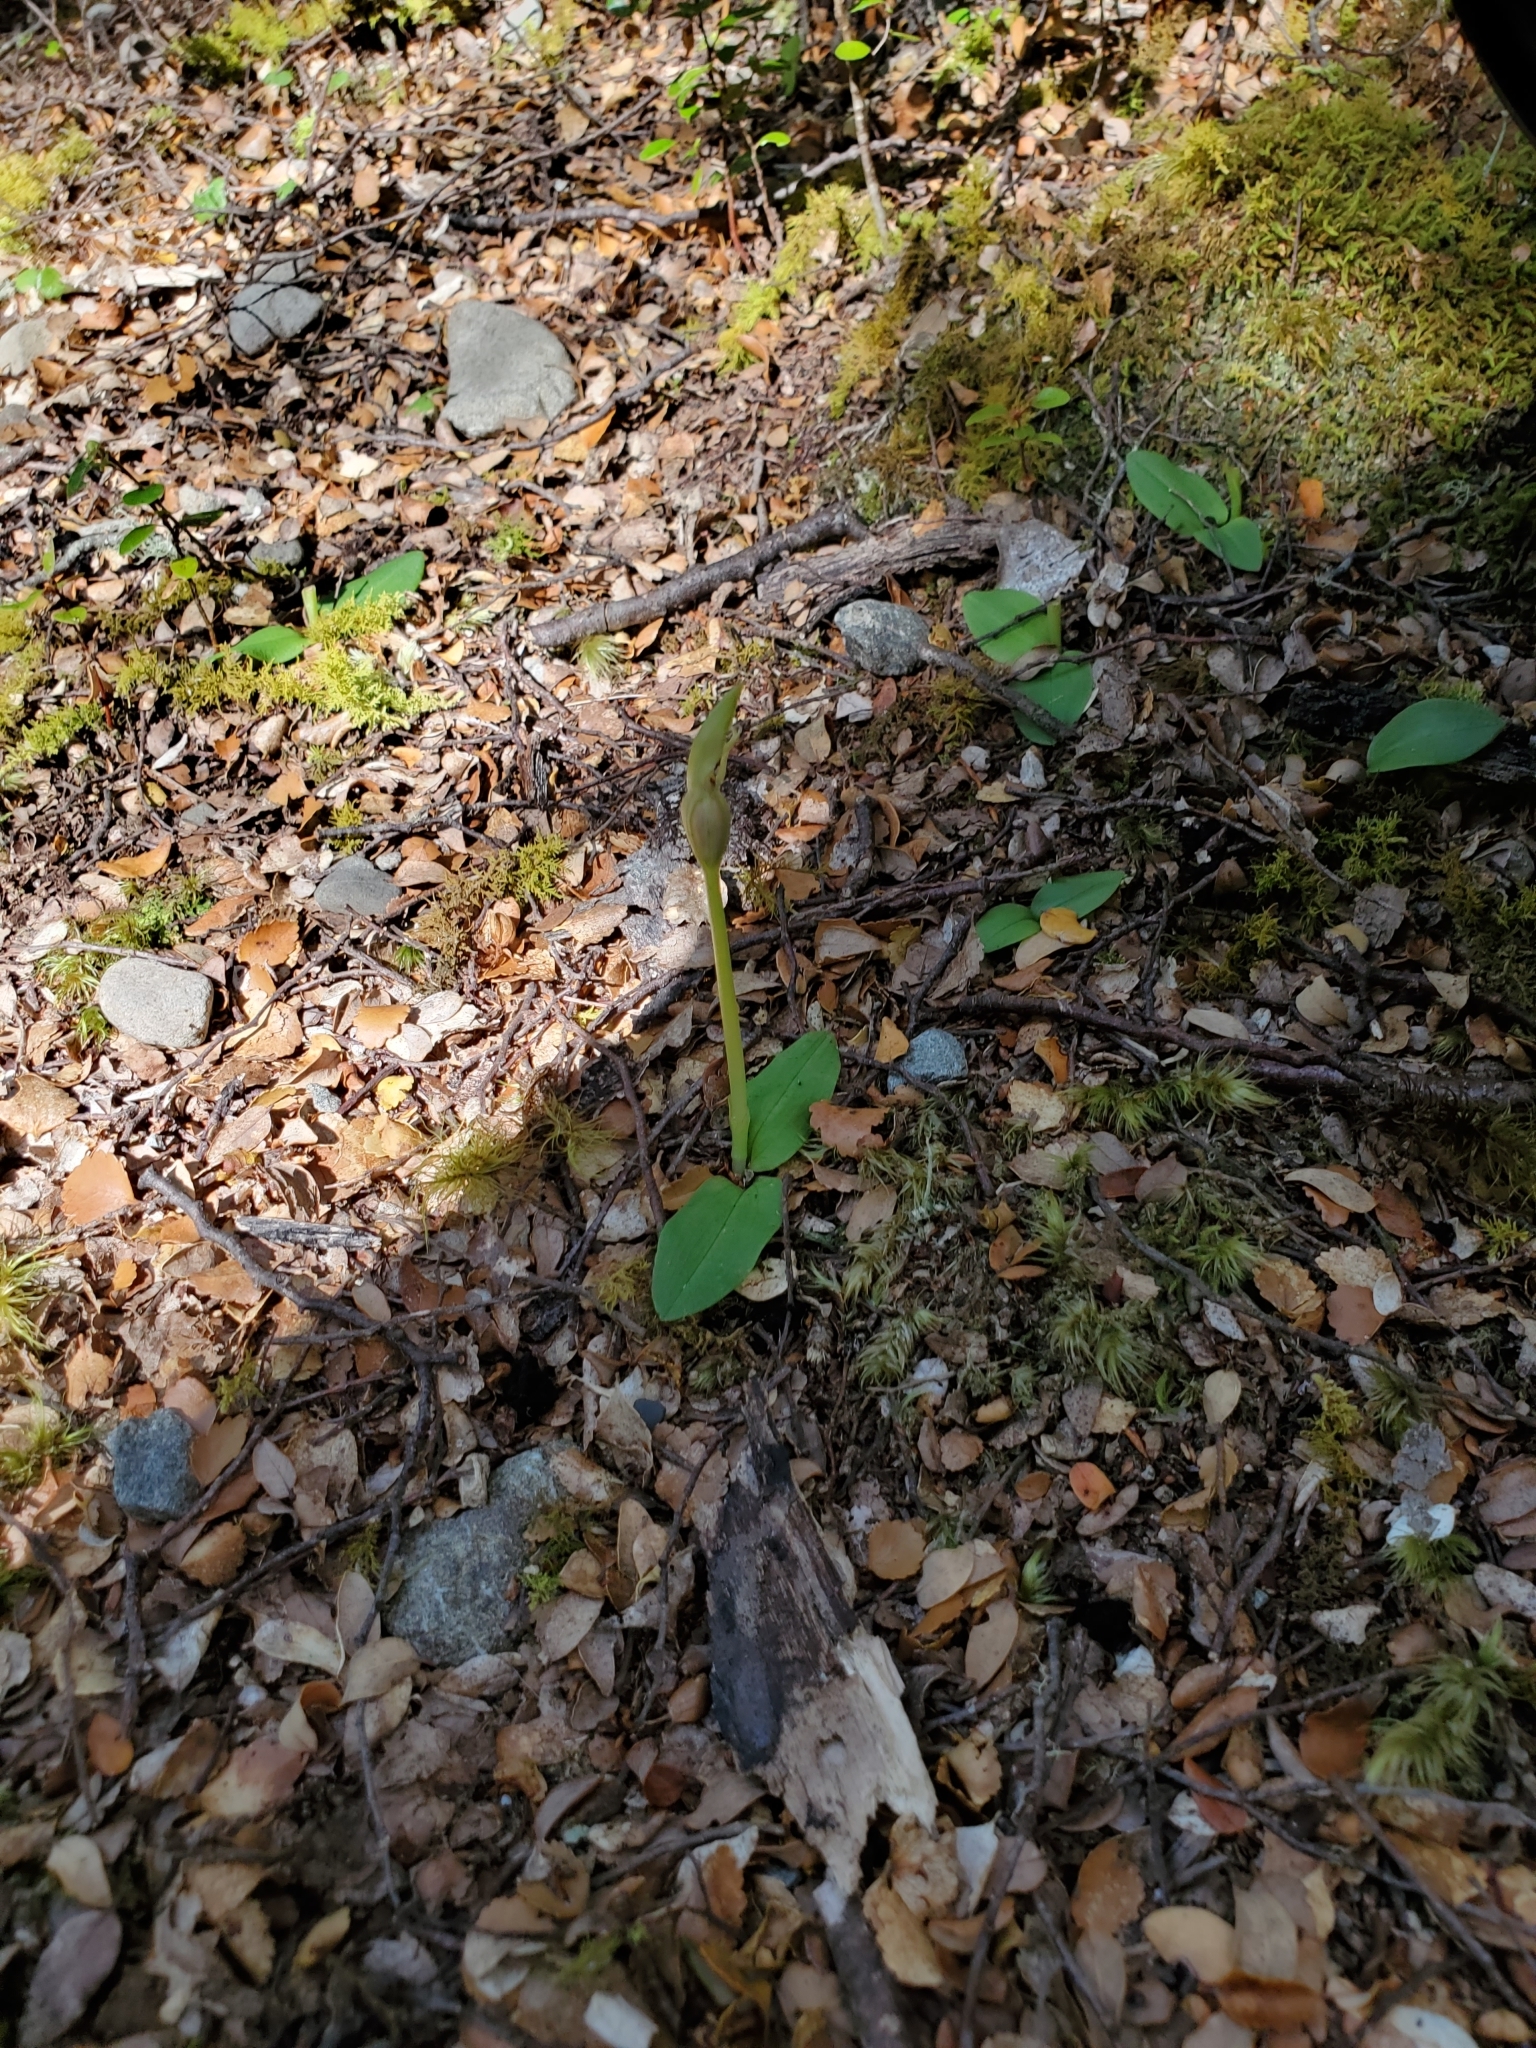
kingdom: Plantae
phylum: Tracheophyta
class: Liliopsida
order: Asparagales
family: Orchidaceae
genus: Chiloglottis
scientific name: Chiloglottis cornuta
